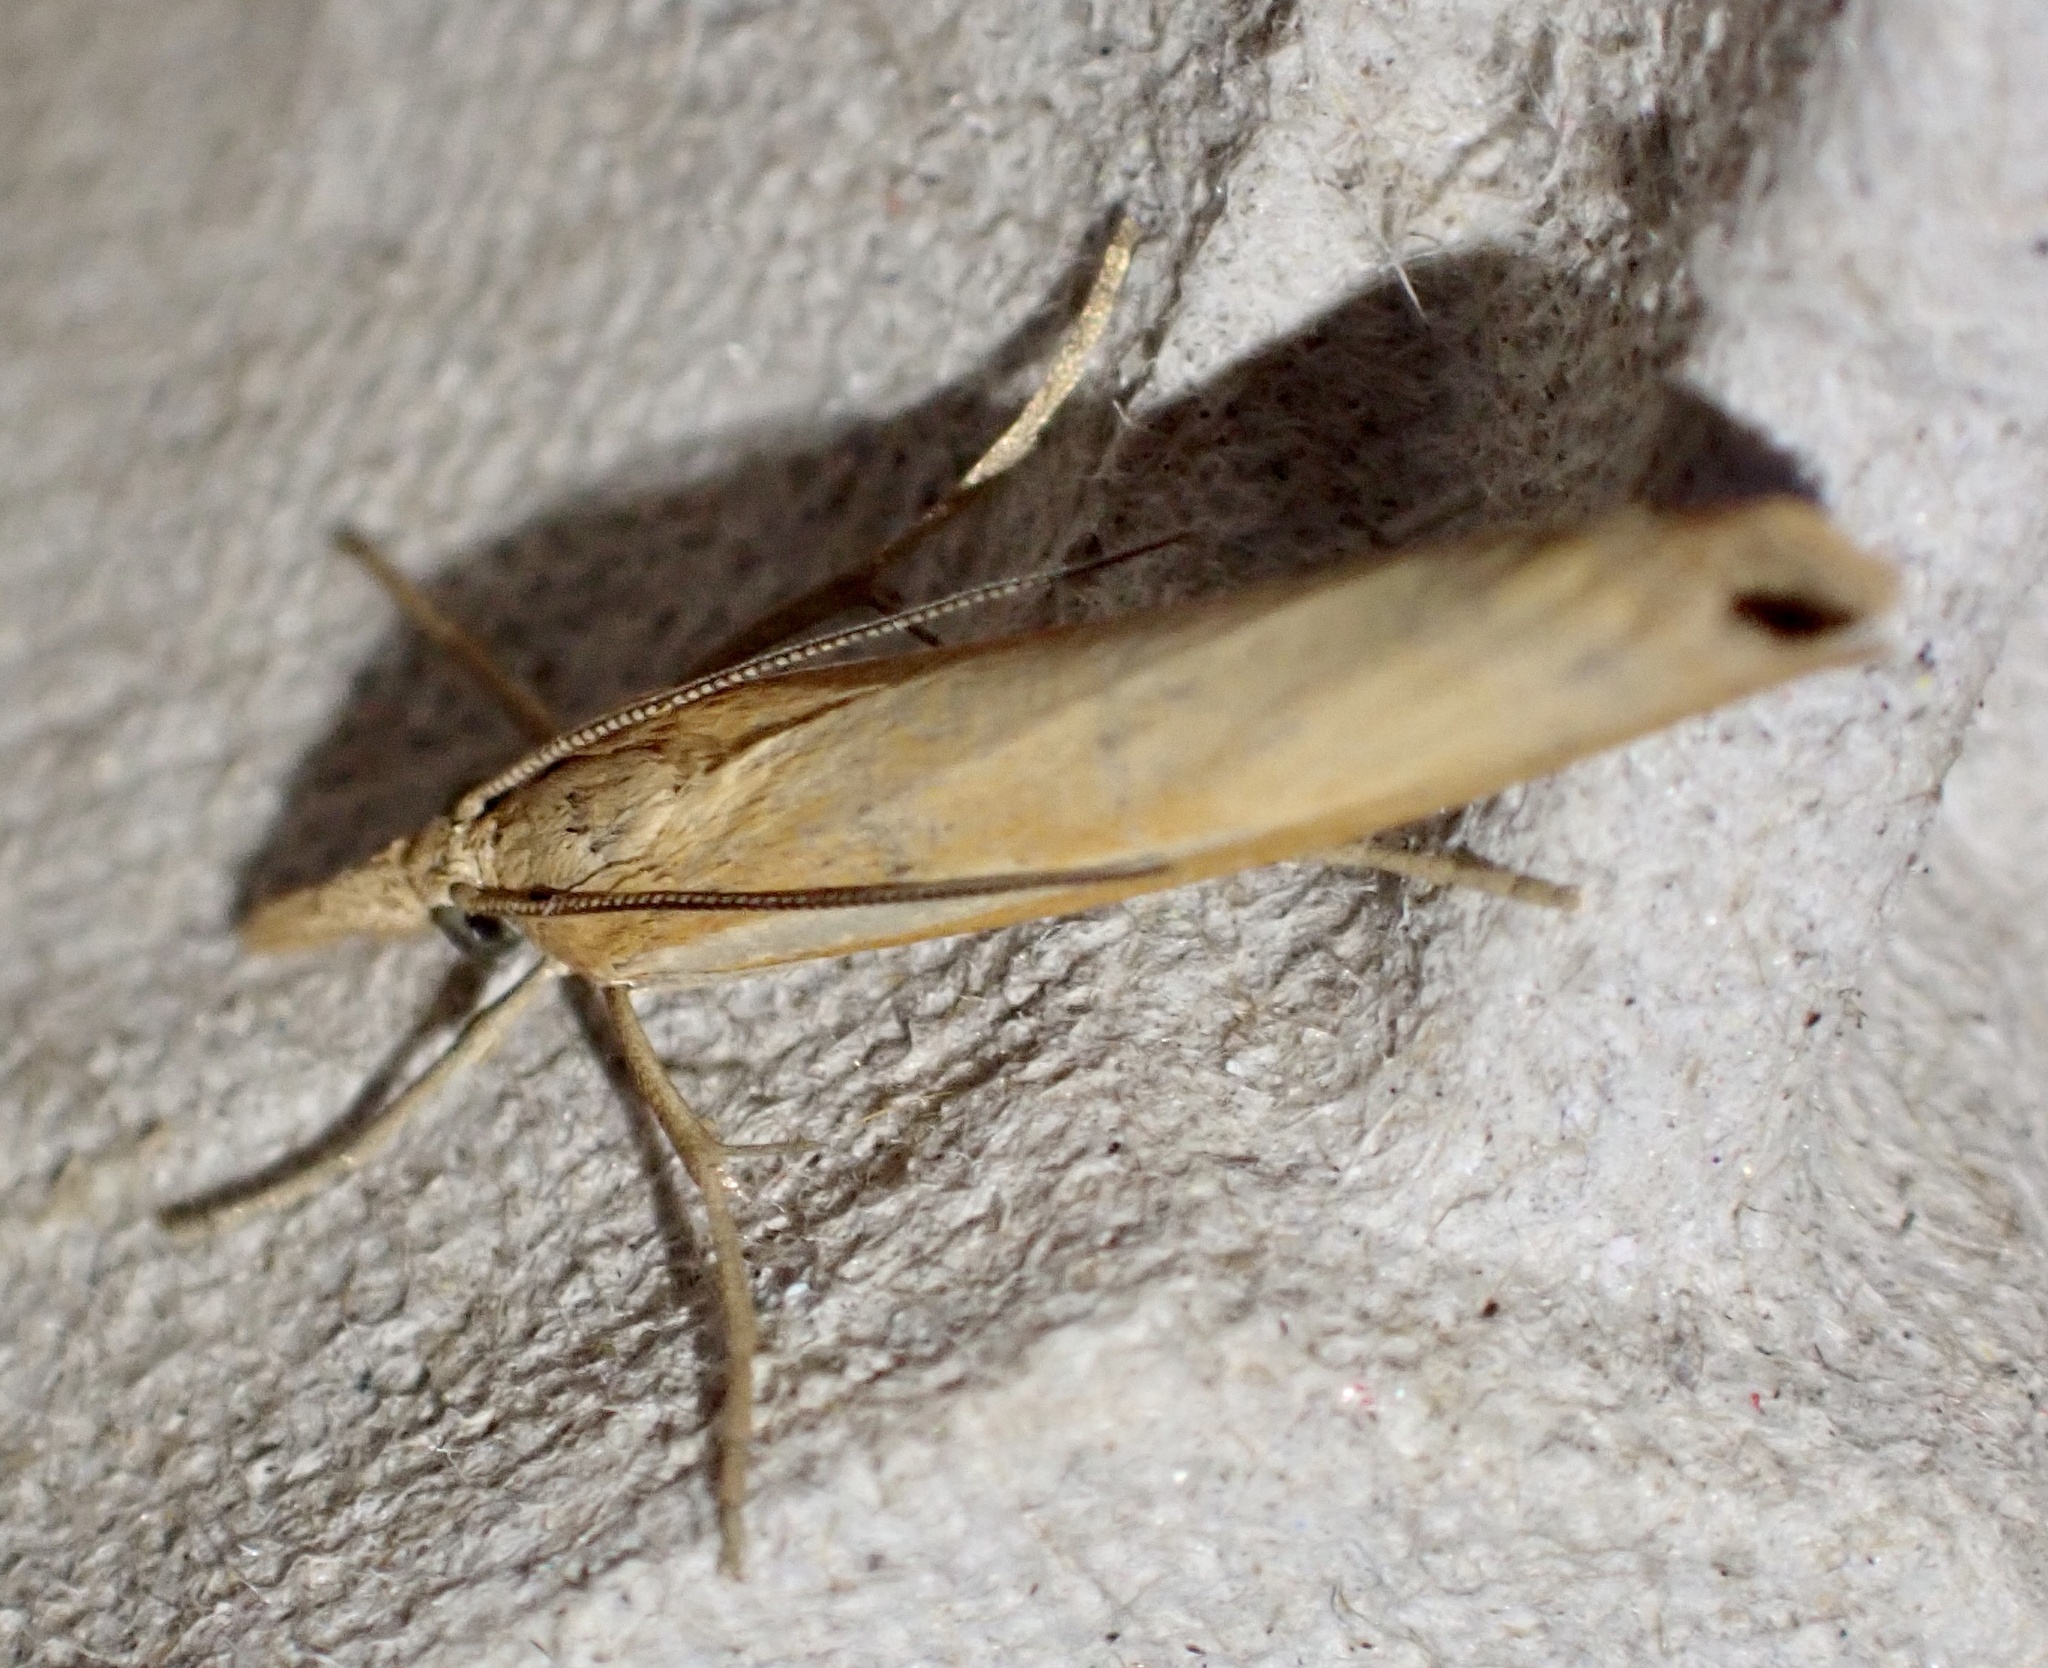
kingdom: Animalia
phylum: Arthropoda
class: Insecta
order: Lepidoptera
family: Crambidae
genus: Agriphila
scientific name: Agriphila tristellus
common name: Common grass-veneer
